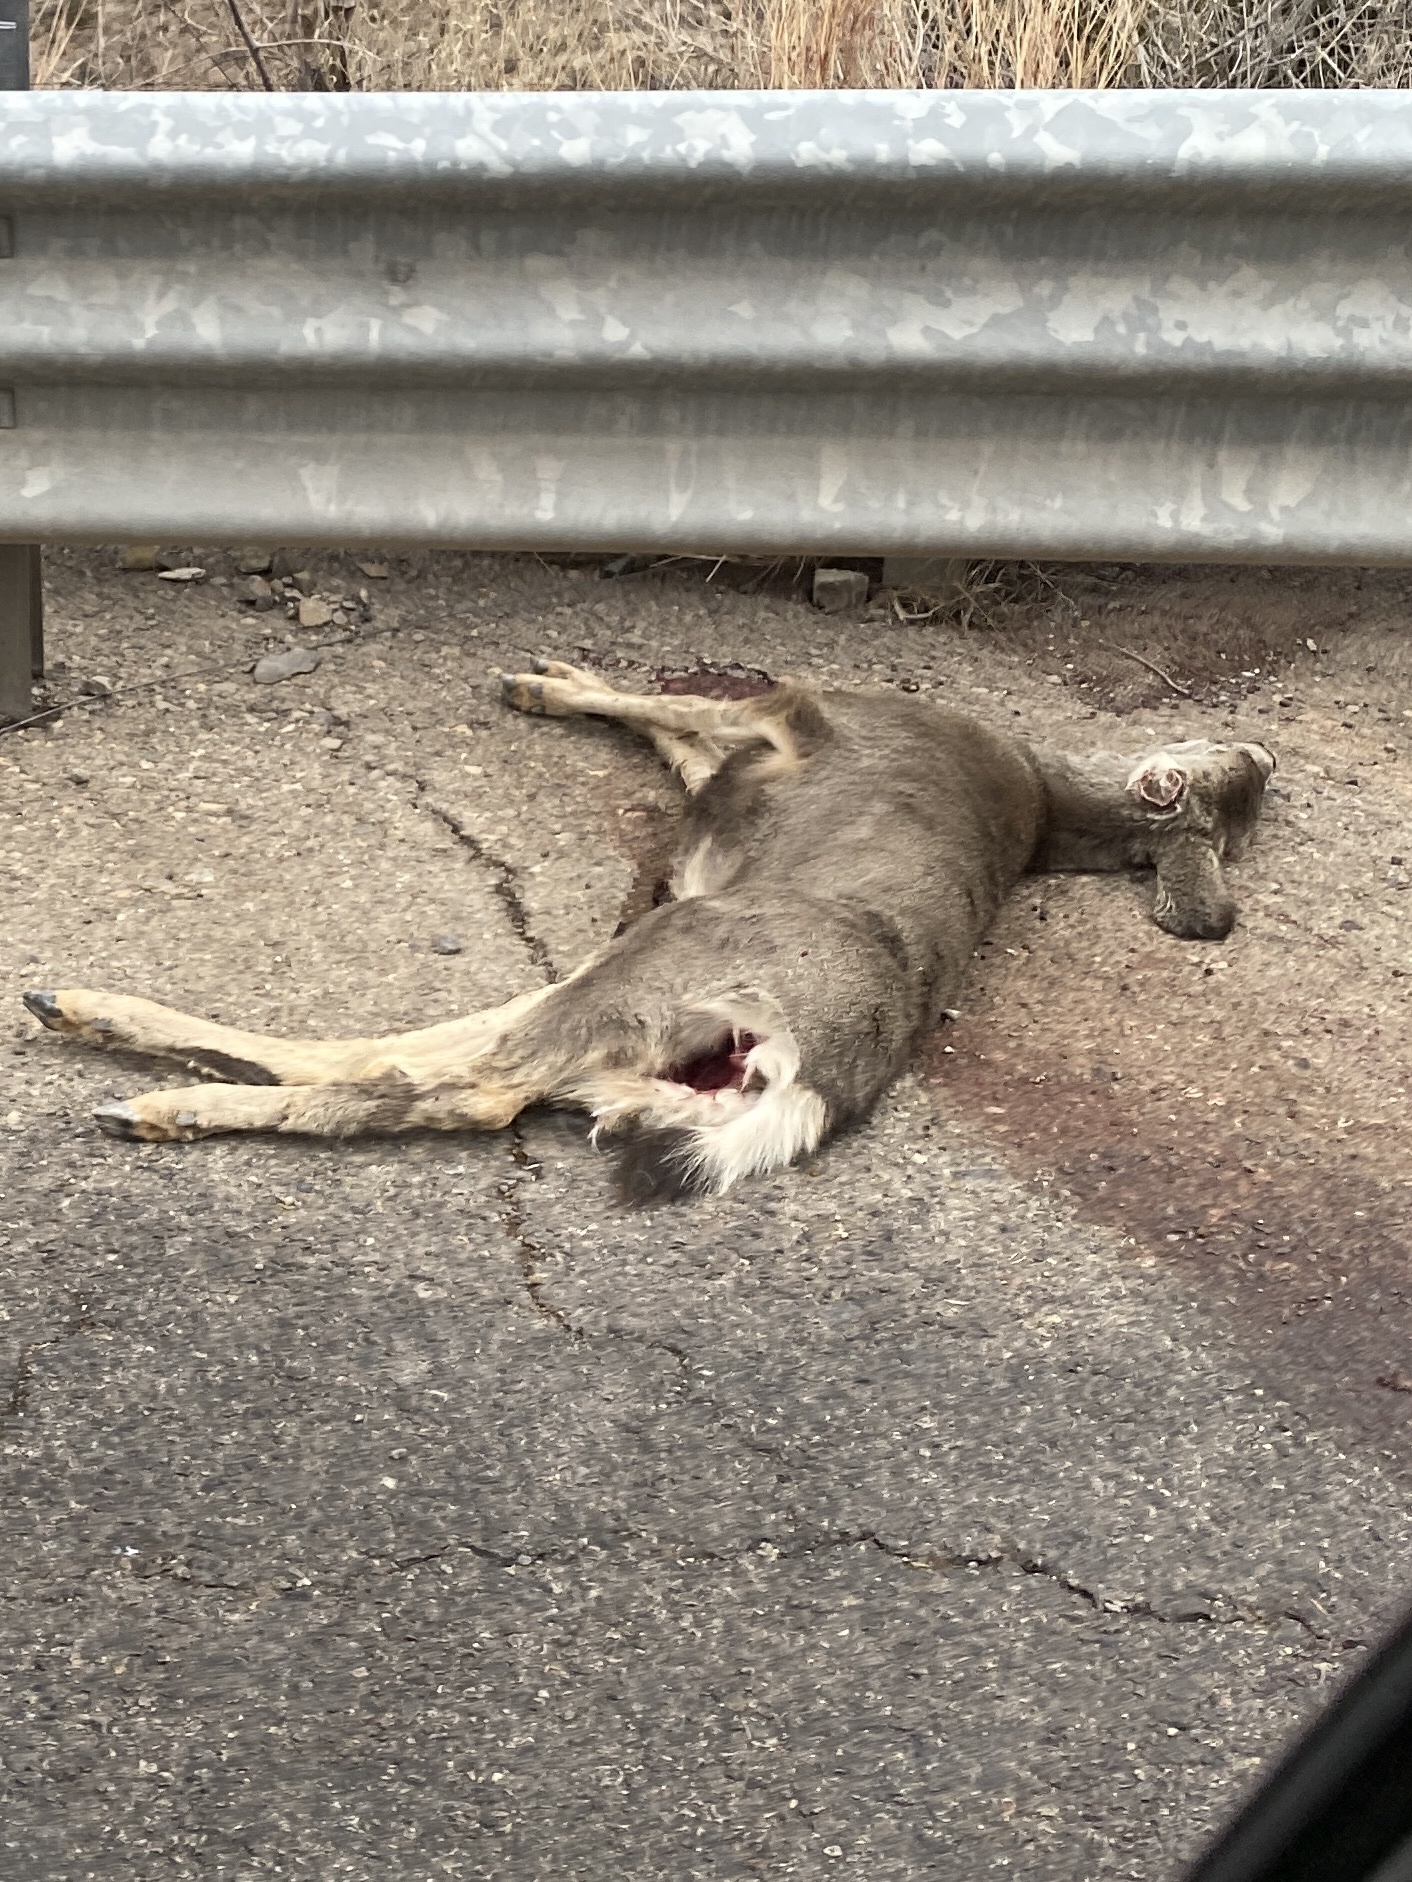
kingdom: Animalia
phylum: Chordata
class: Mammalia
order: Artiodactyla
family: Cervidae
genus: Odocoileus
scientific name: Odocoileus hemionus
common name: Mule deer
